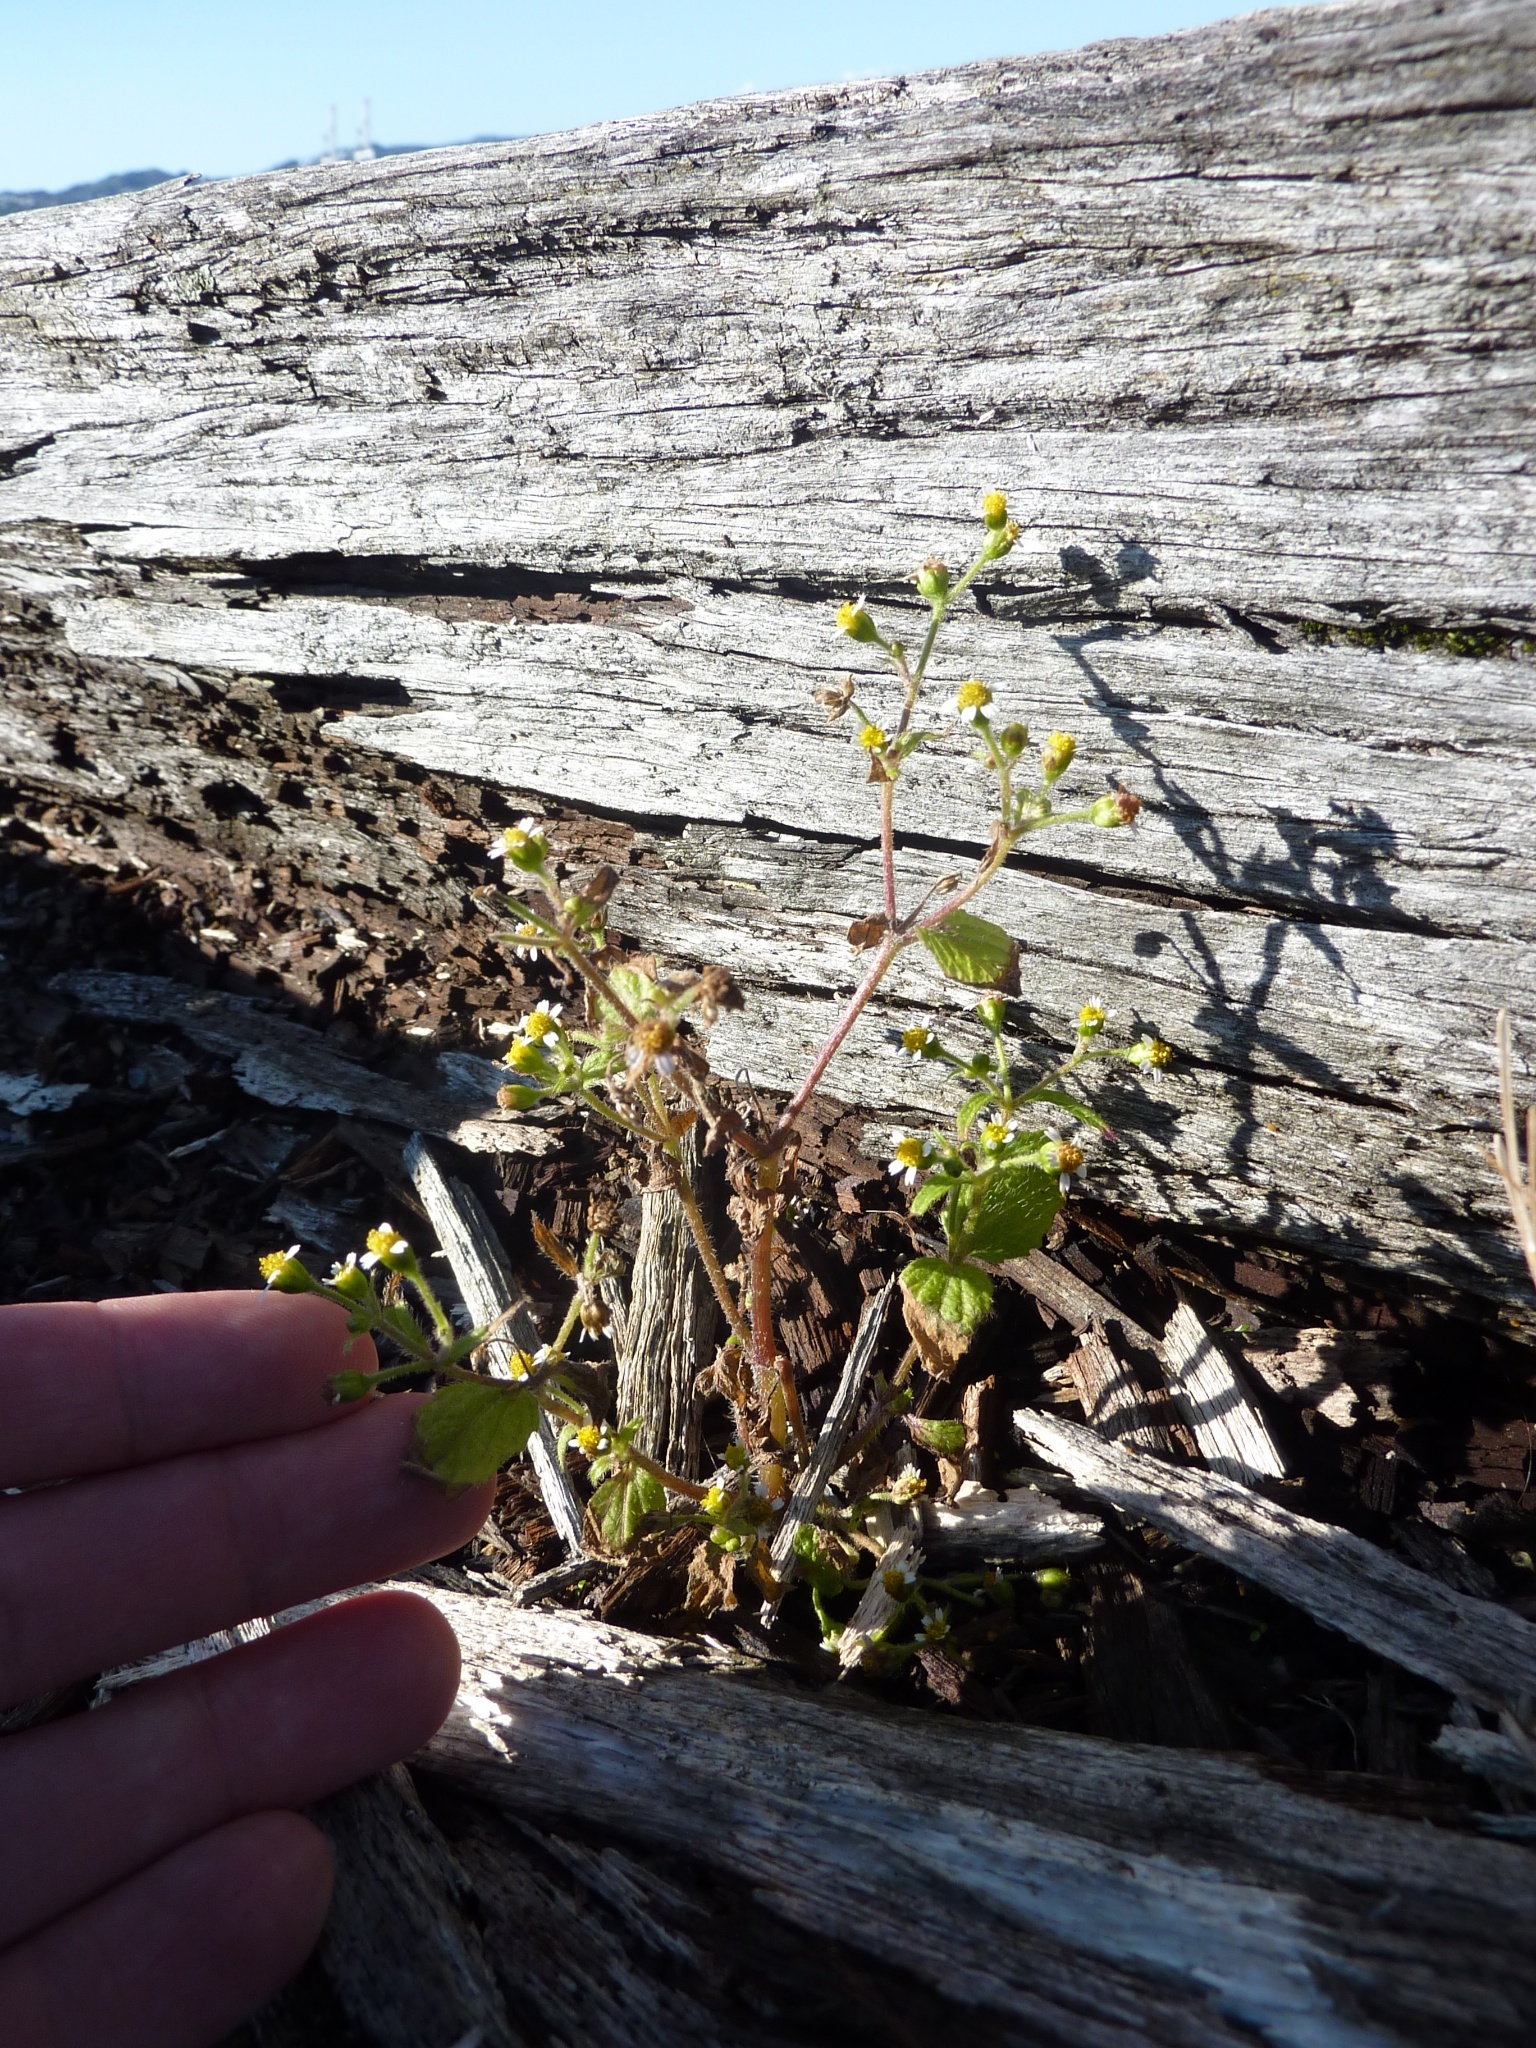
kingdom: Plantae
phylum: Tracheophyta
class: Magnoliopsida
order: Asterales
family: Asteraceae
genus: Galinsoga
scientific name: Galinsoga parviflora
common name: Gallant soldier
